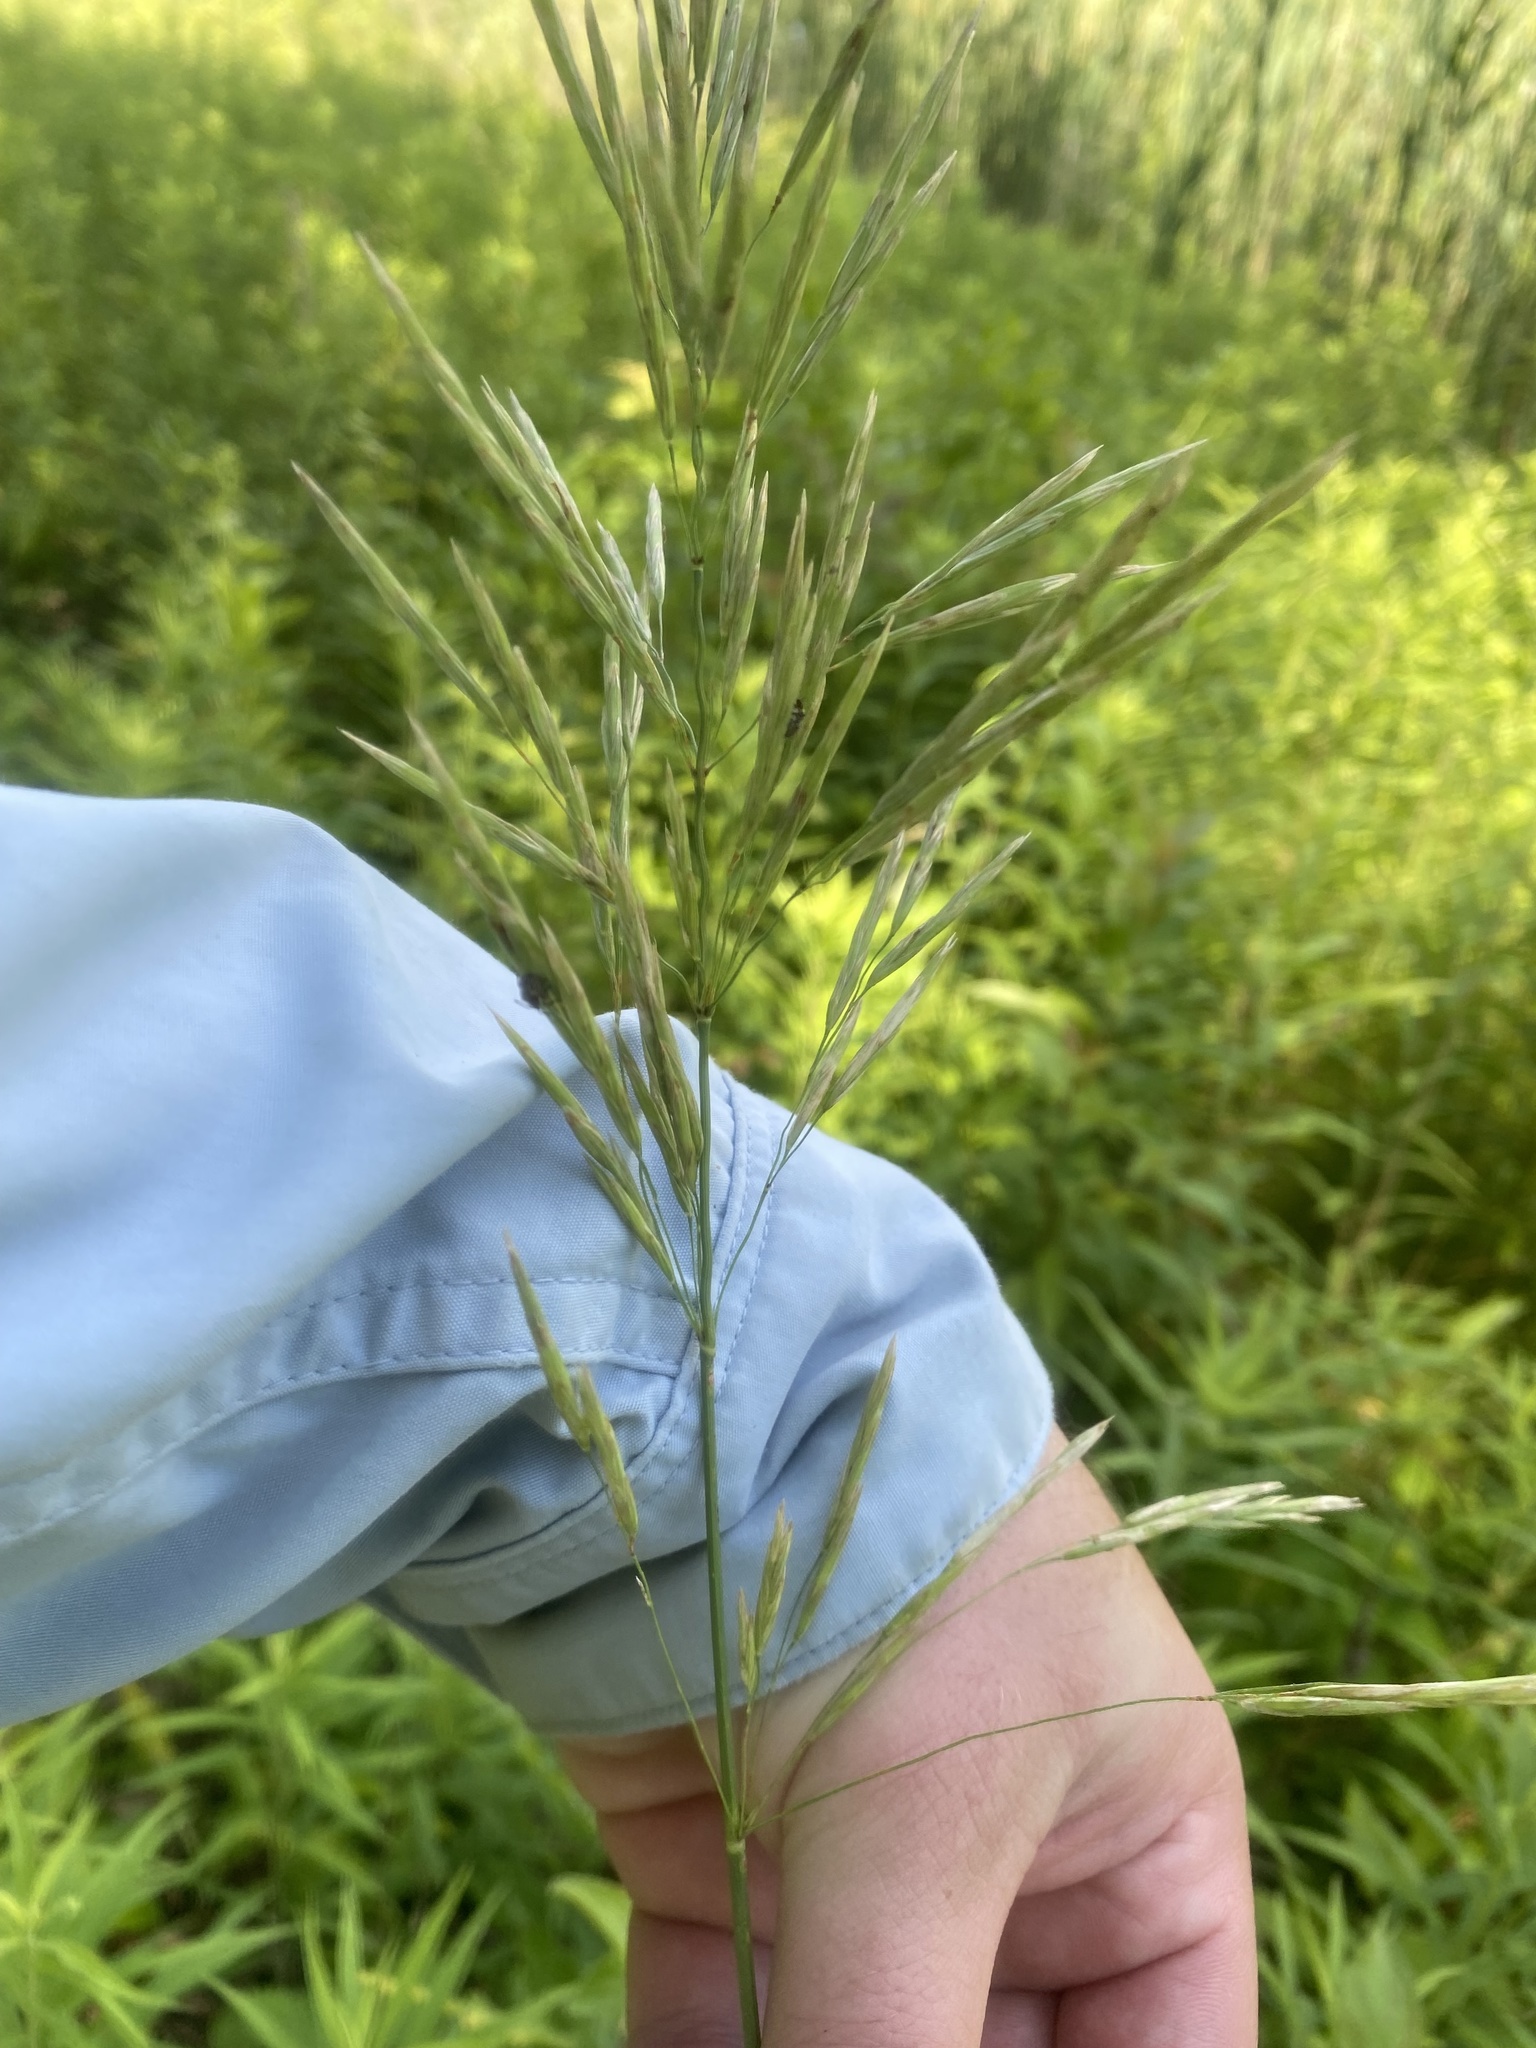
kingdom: Plantae
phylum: Tracheophyta
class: Liliopsida
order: Poales
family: Poaceae
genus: Bromus
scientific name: Bromus inermis
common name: Smooth brome
